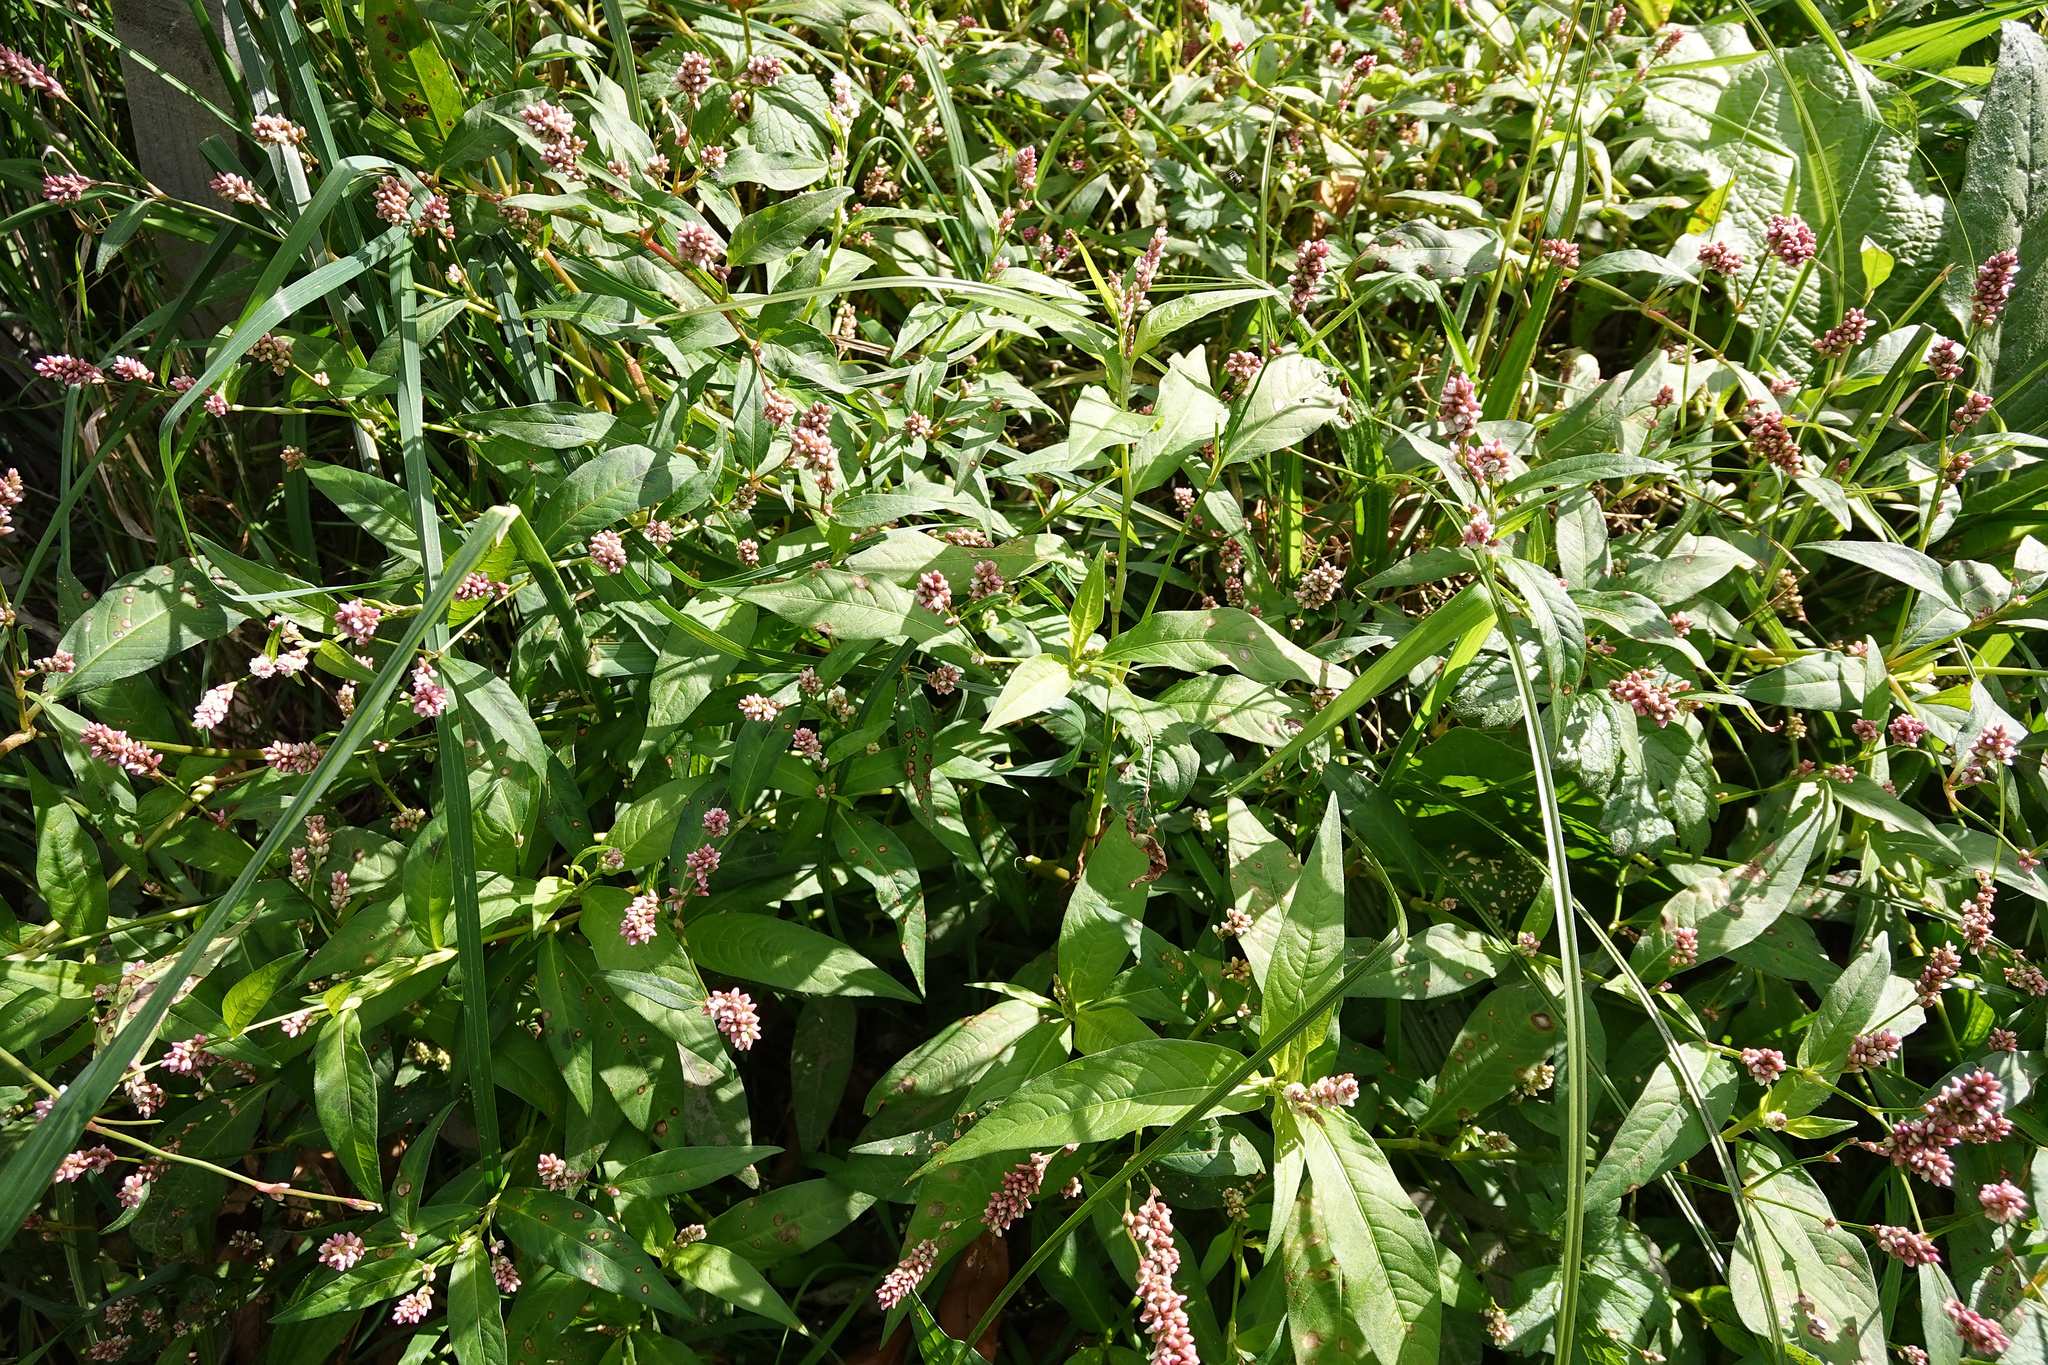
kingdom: Plantae
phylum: Tracheophyta
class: Magnoliopsida
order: Caryophyllales
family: Polygonaceae
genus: Persicaria
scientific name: Persicaria maculosa
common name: Redshank
